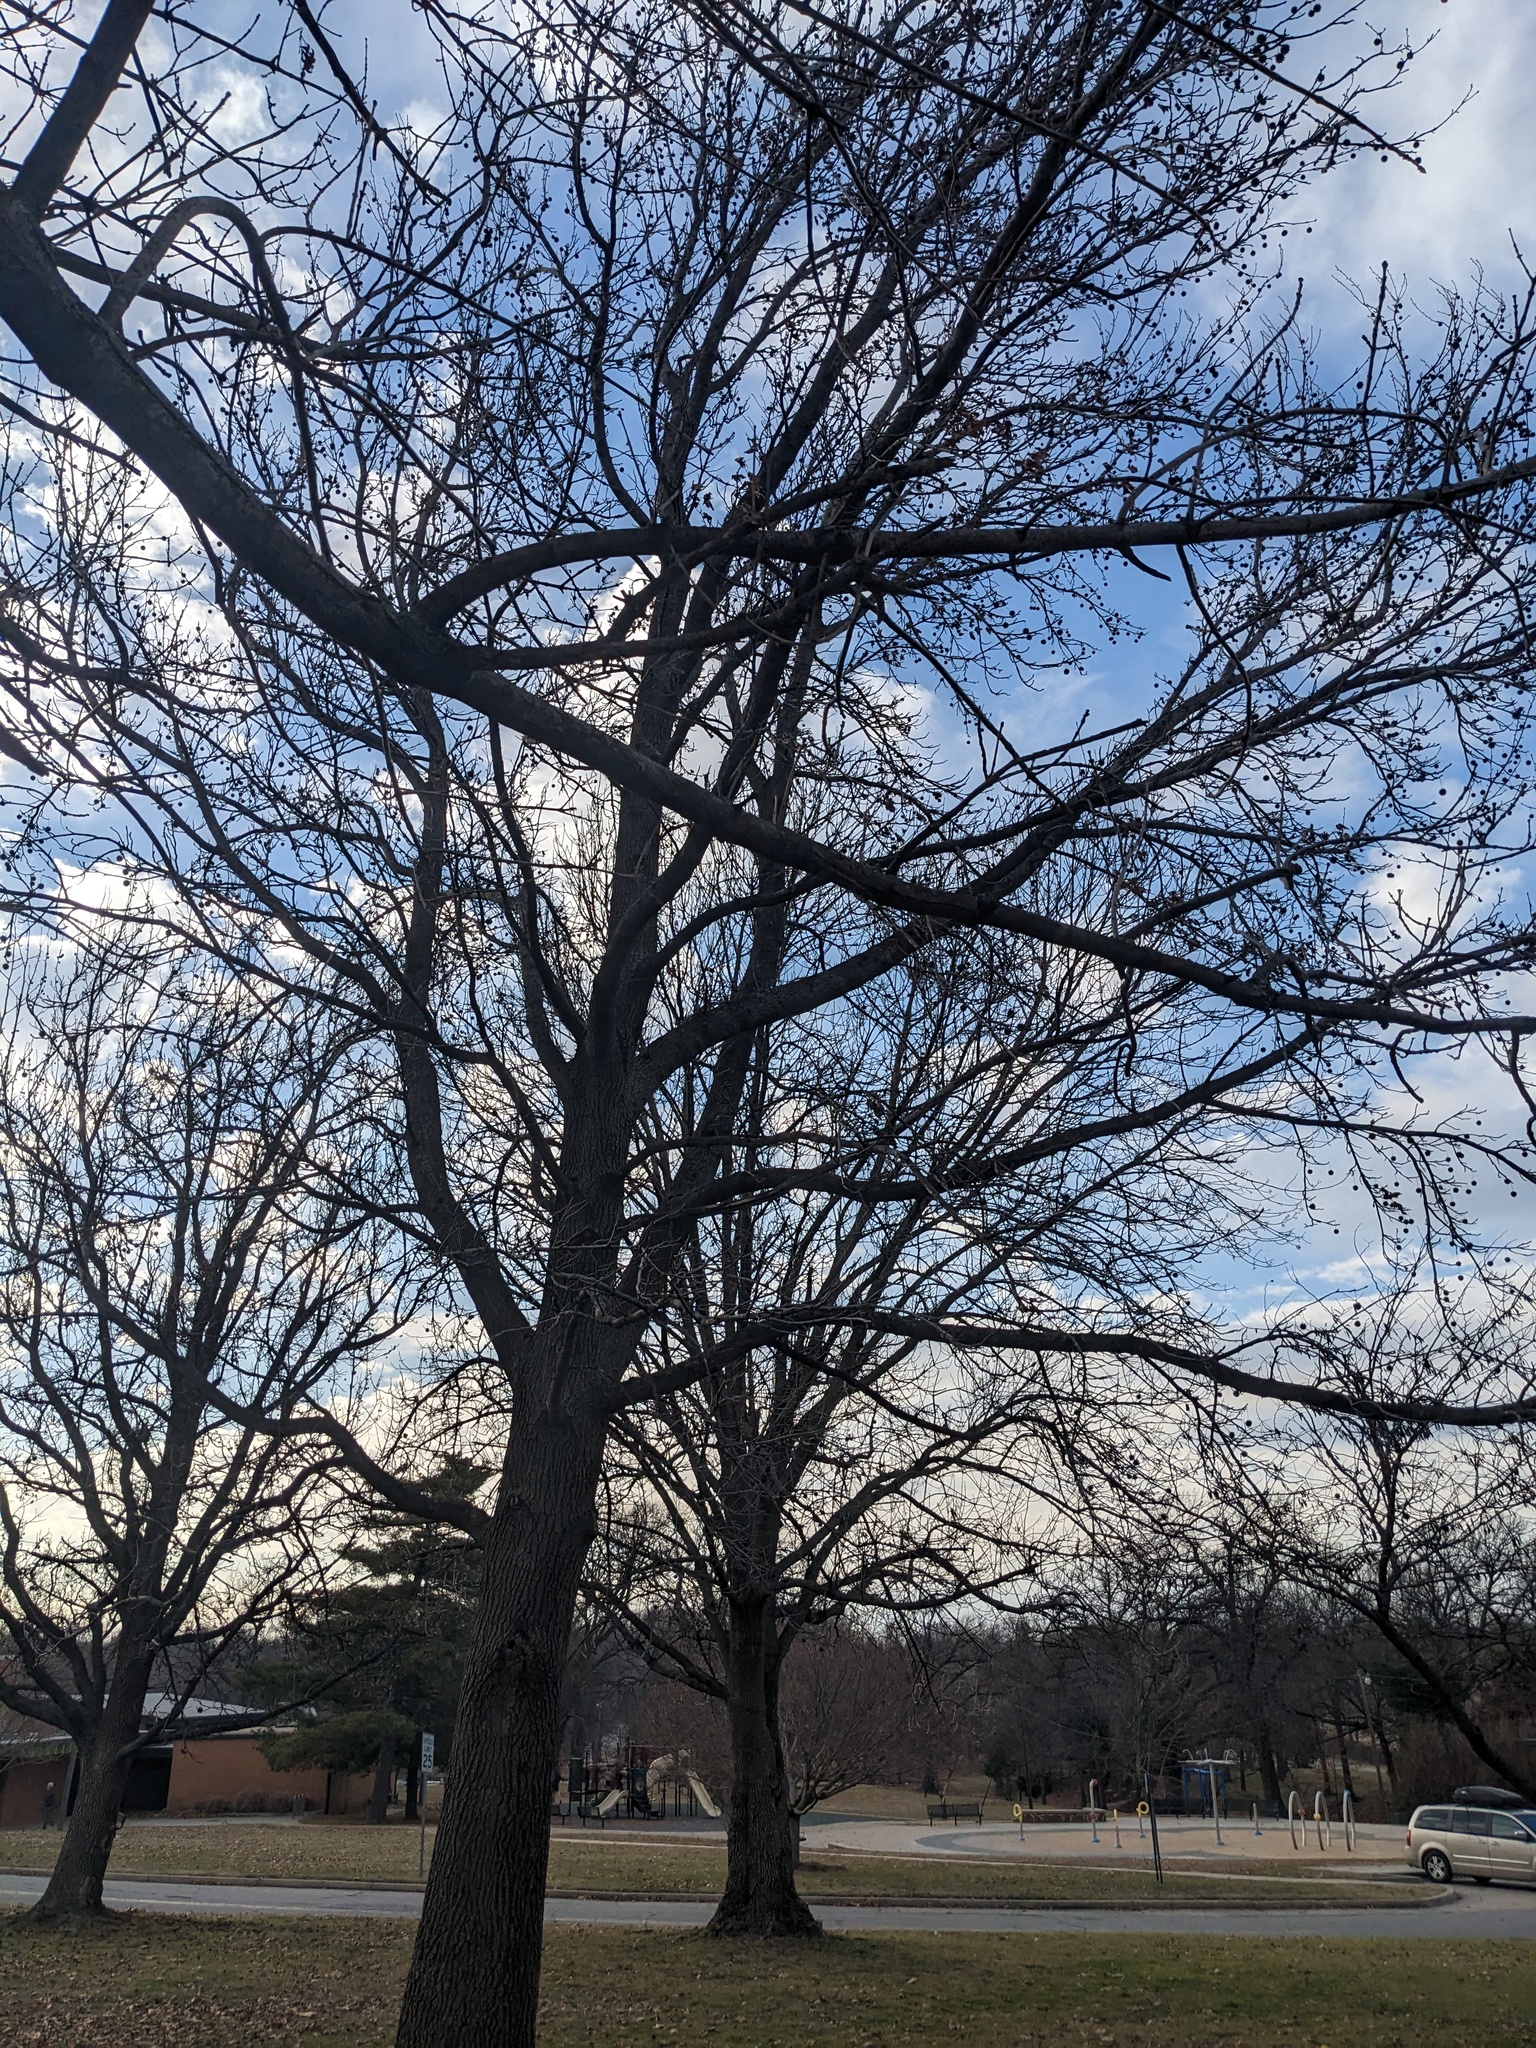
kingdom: Plantae
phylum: Tracheophyta
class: Magnoliopsida
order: Saxifragales
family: Altingiaceae
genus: Liquidambar
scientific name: Liquidambar styraciflua
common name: Sweet gum
